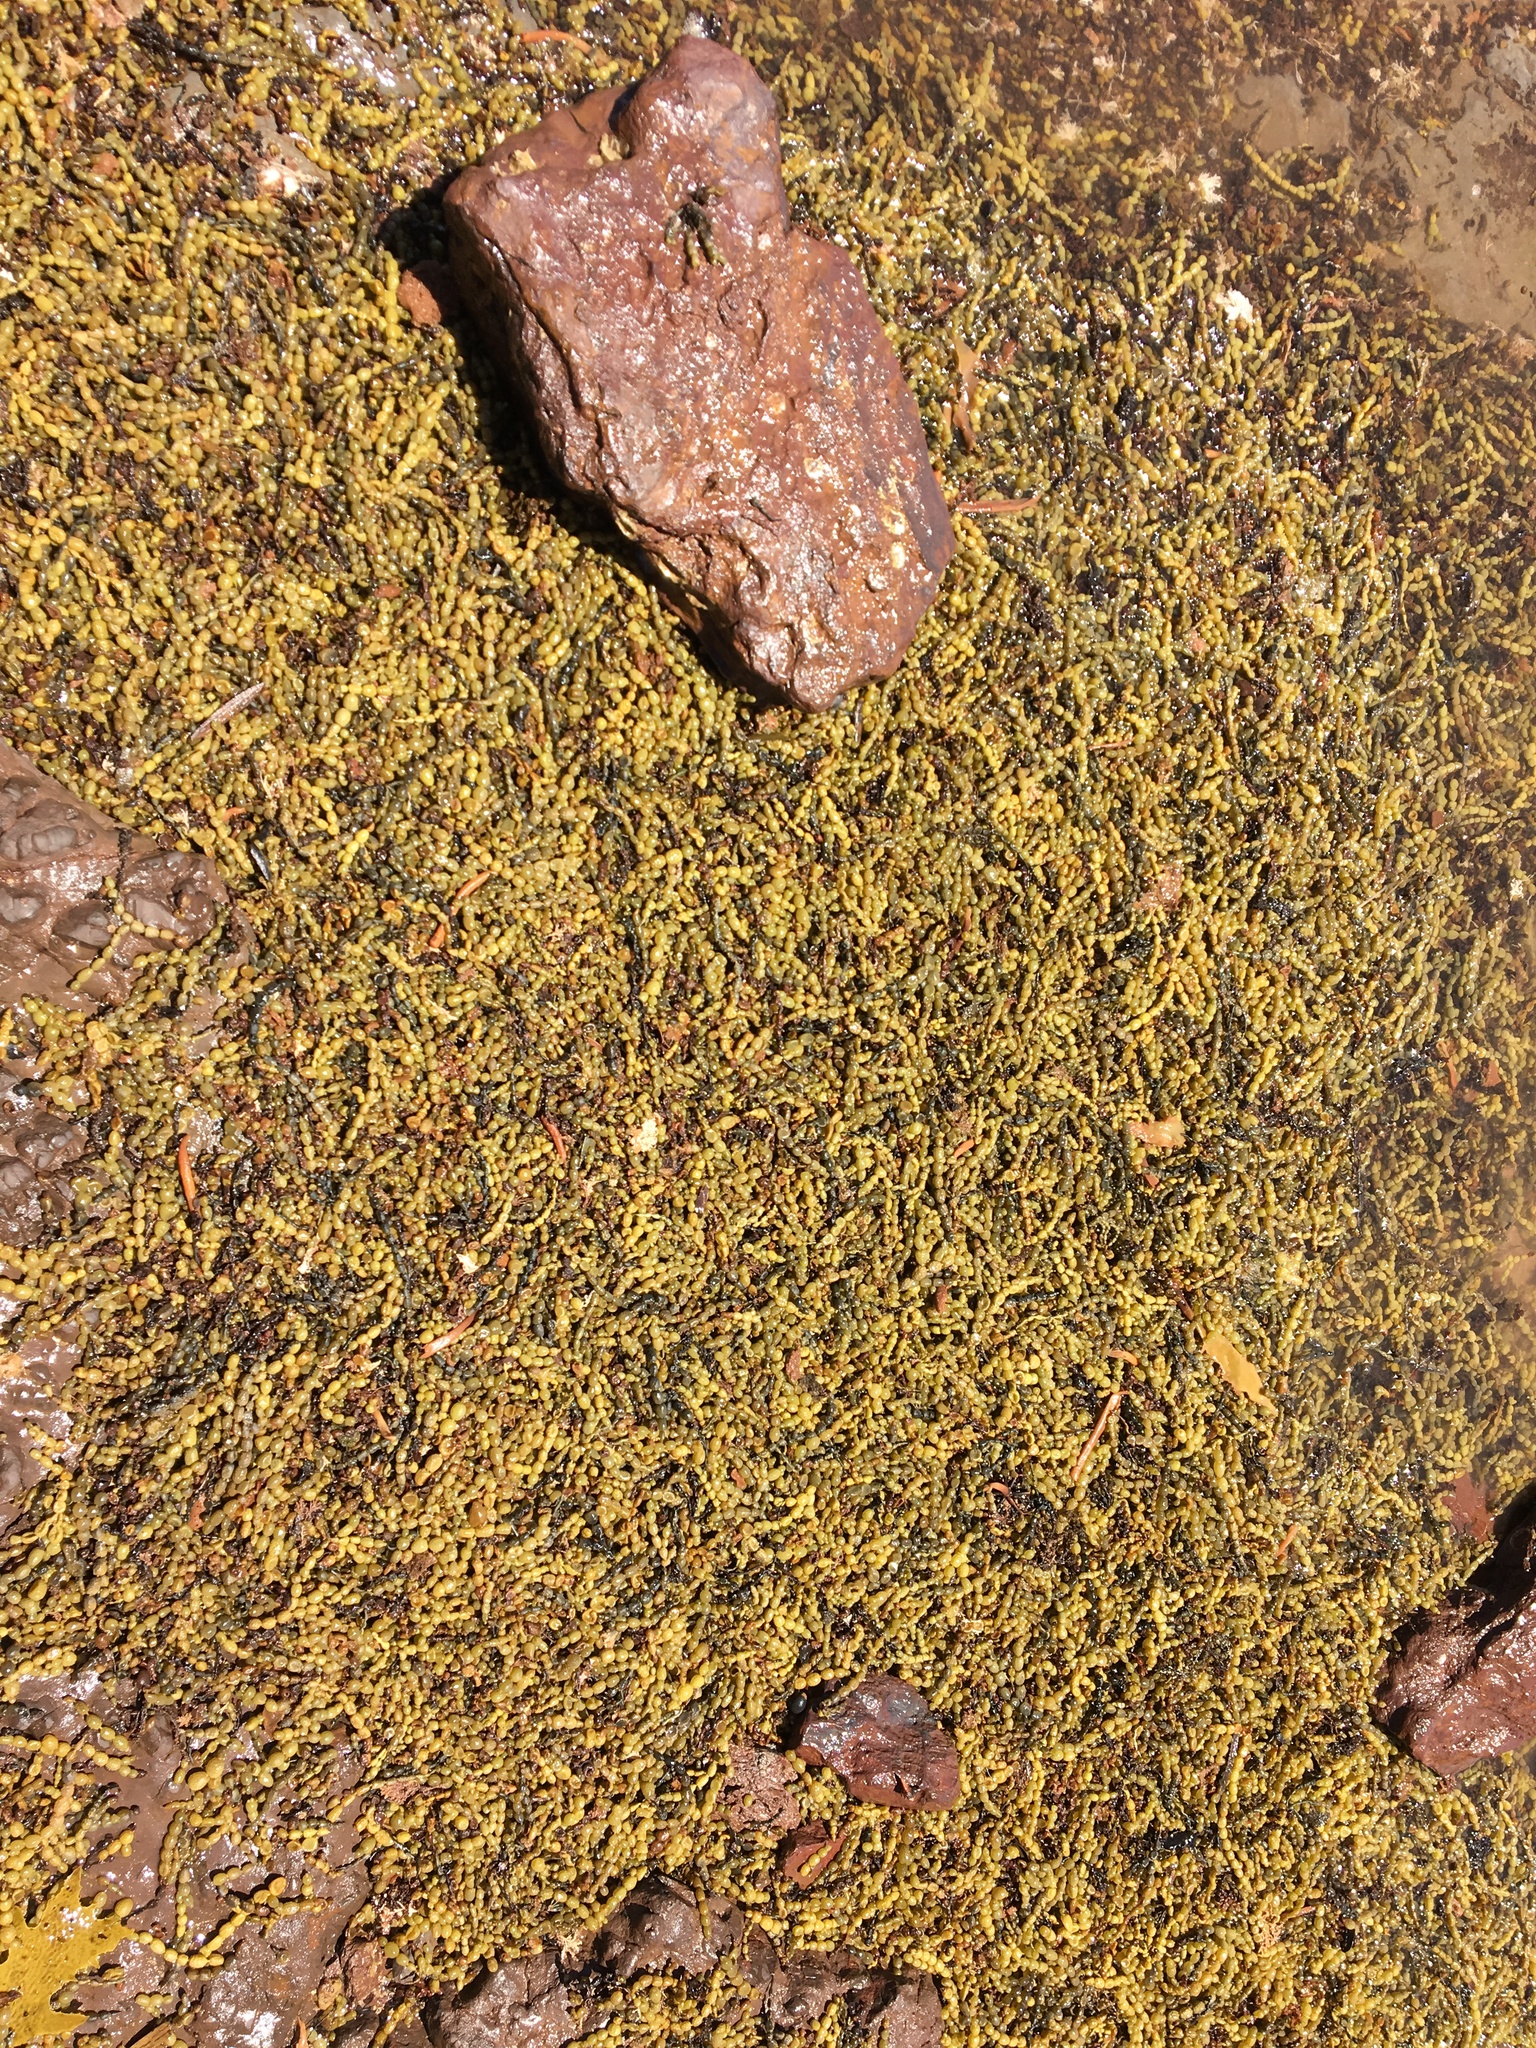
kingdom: Chromista
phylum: Ochrophyta
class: Phaeophyceae
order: Fucales
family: Hormosiraceae
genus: Hormosira
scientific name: Hormosira banksii
